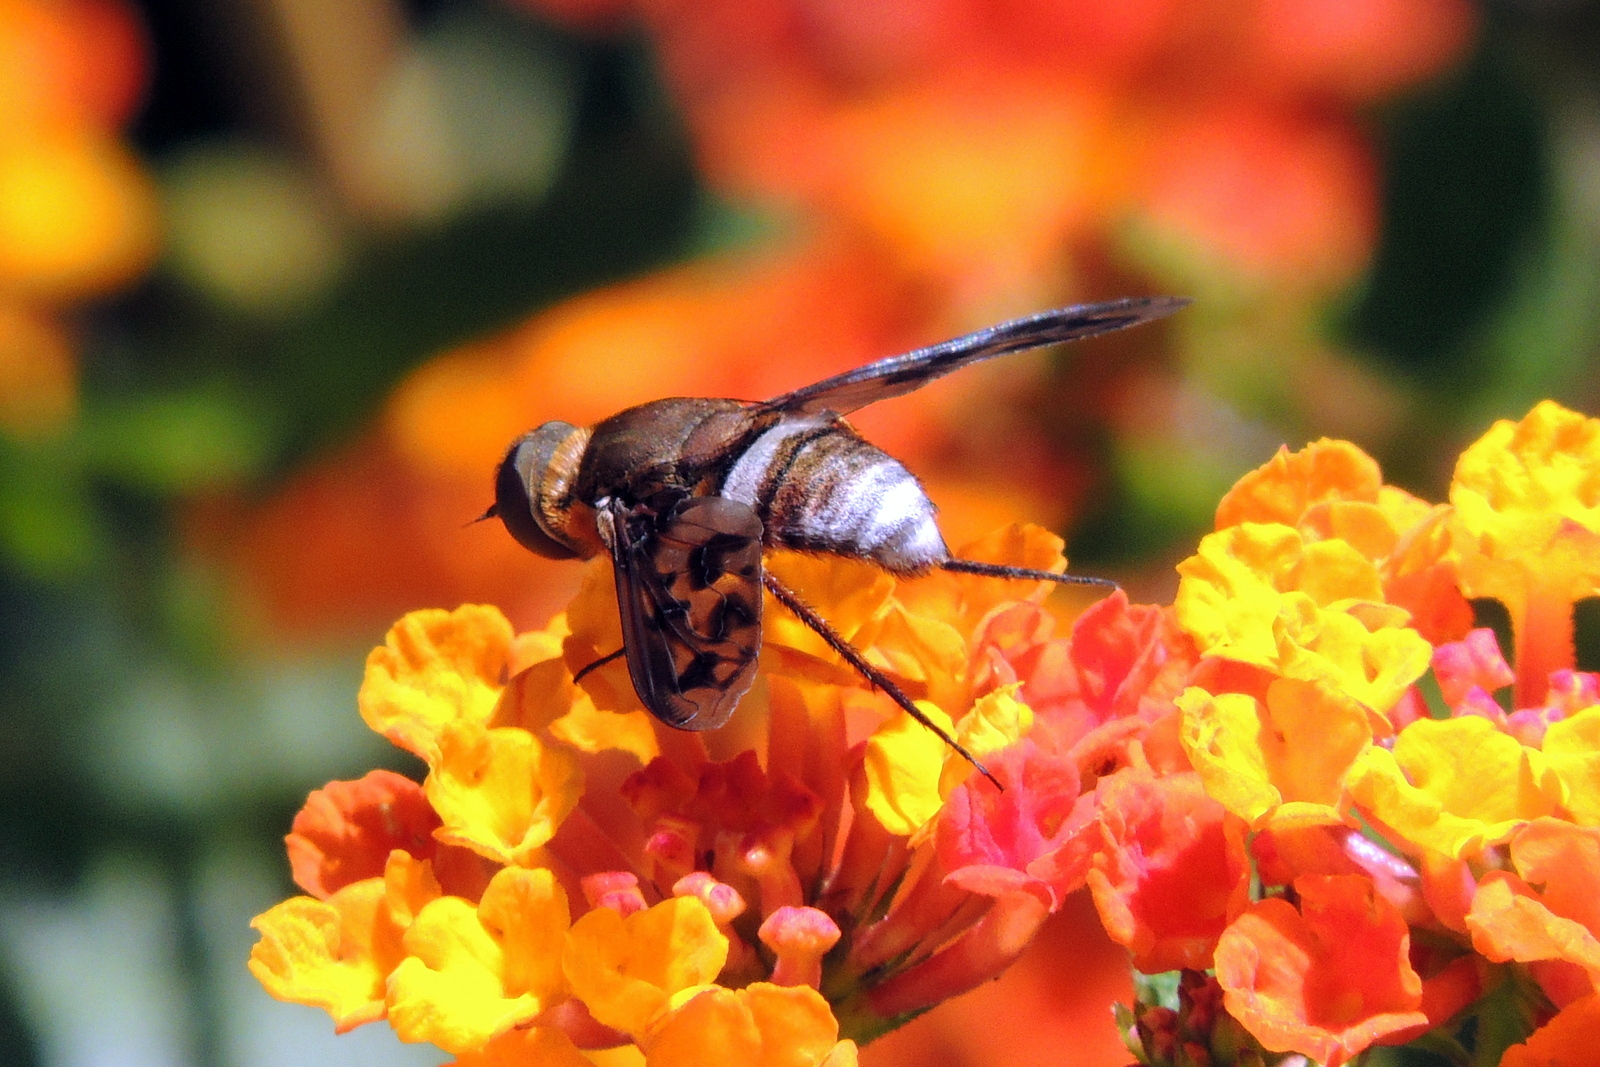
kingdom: Animalia
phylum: Arthropoda
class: Insecta
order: Diptera
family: Bombyliidae
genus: Nyia
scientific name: Nyia gazophylax
